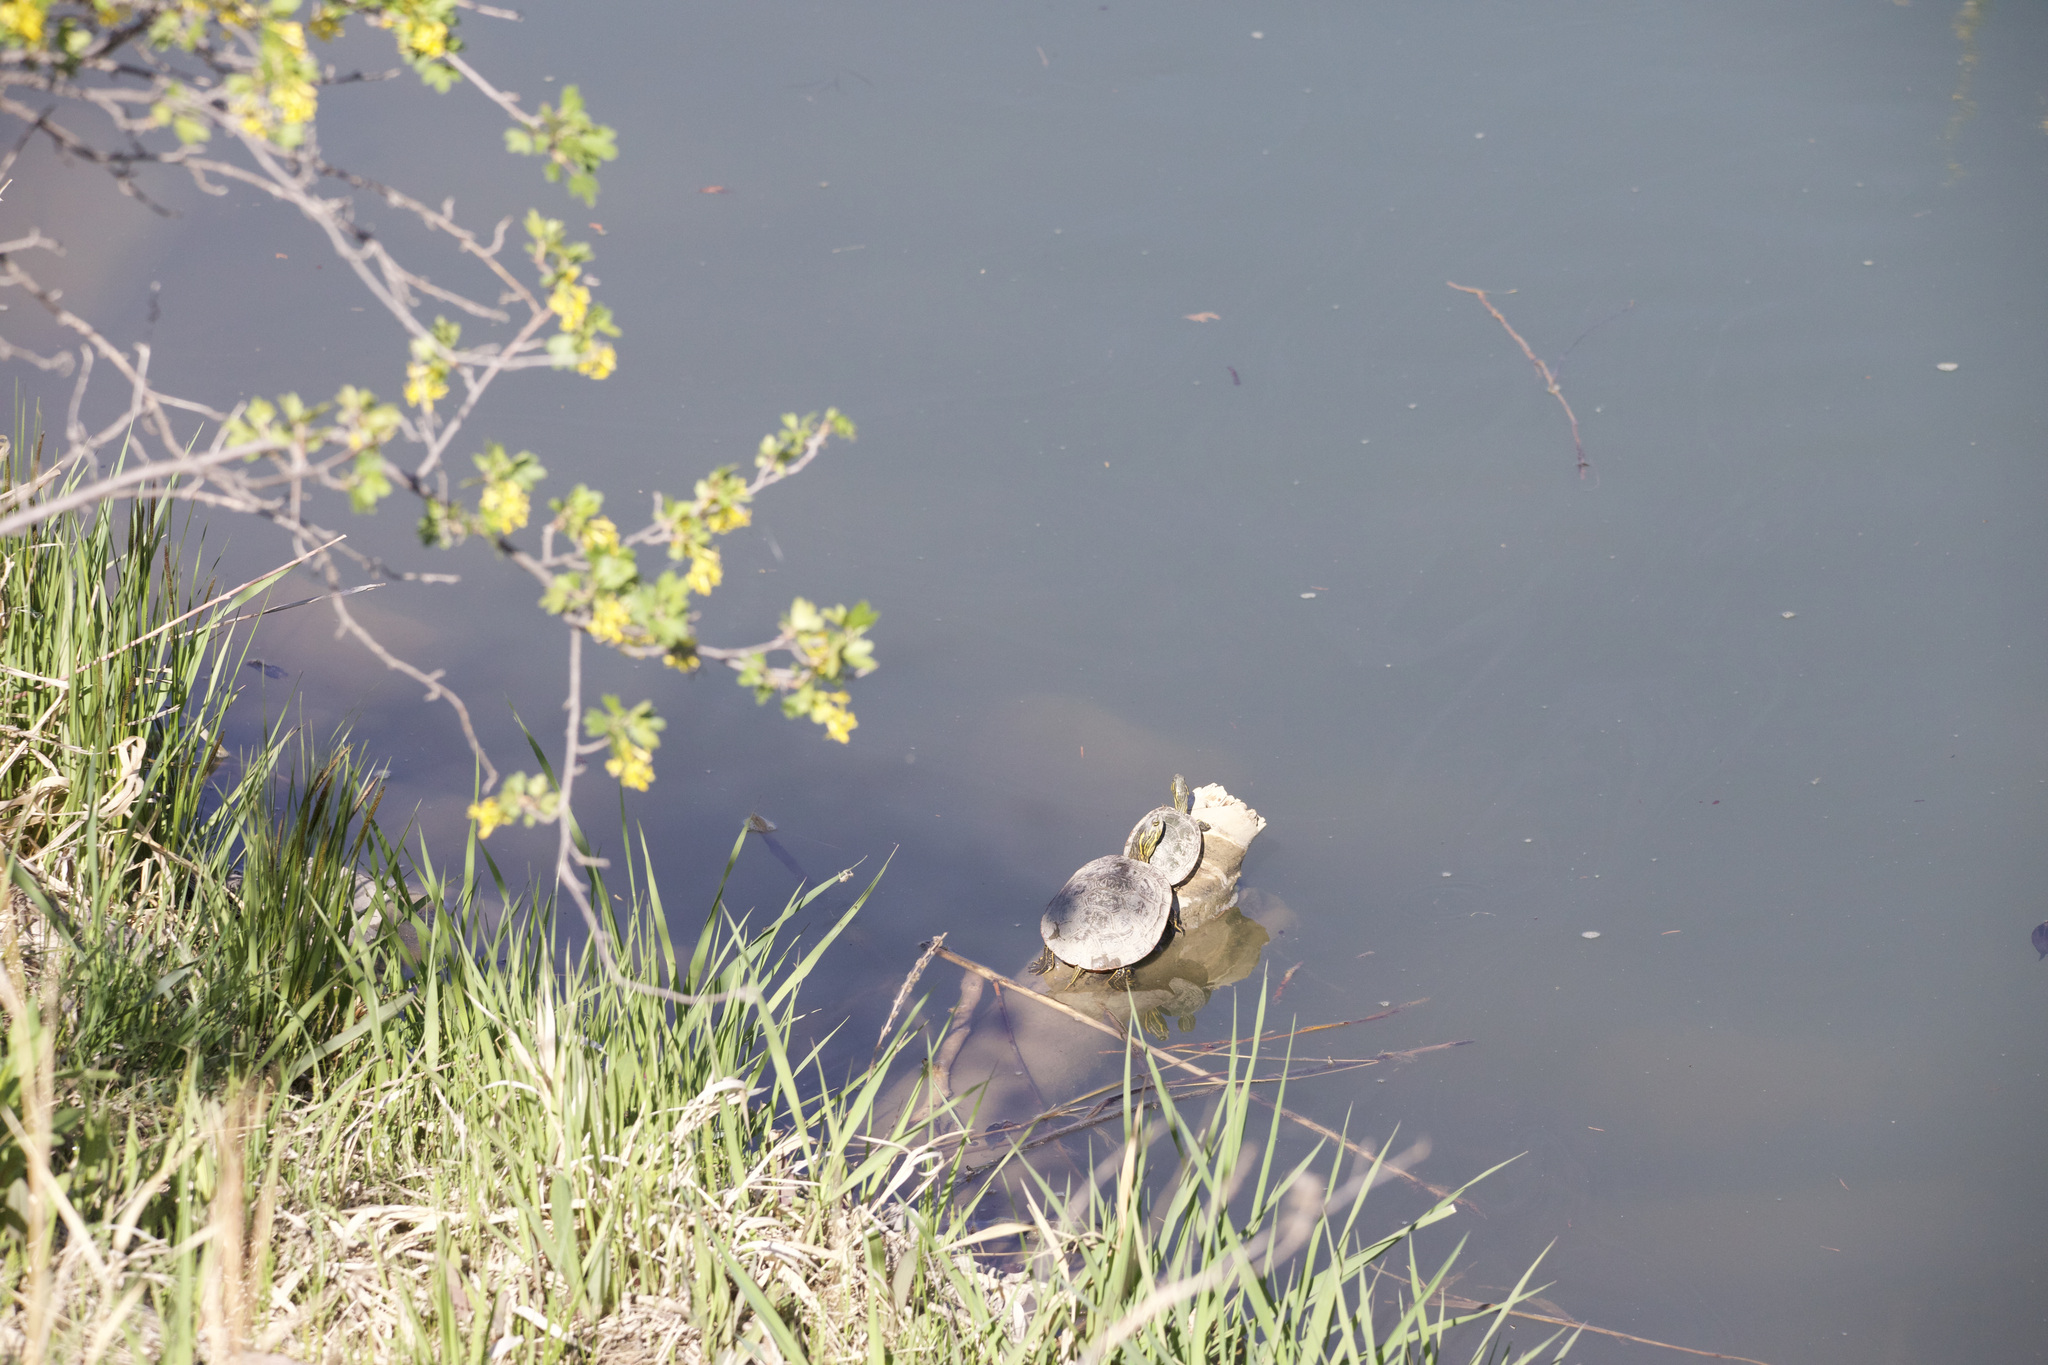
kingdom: Animalia
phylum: Chordata
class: Testudines
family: Emydidae
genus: Chrysemys
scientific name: Chrysemys picta
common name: Painted turtle
